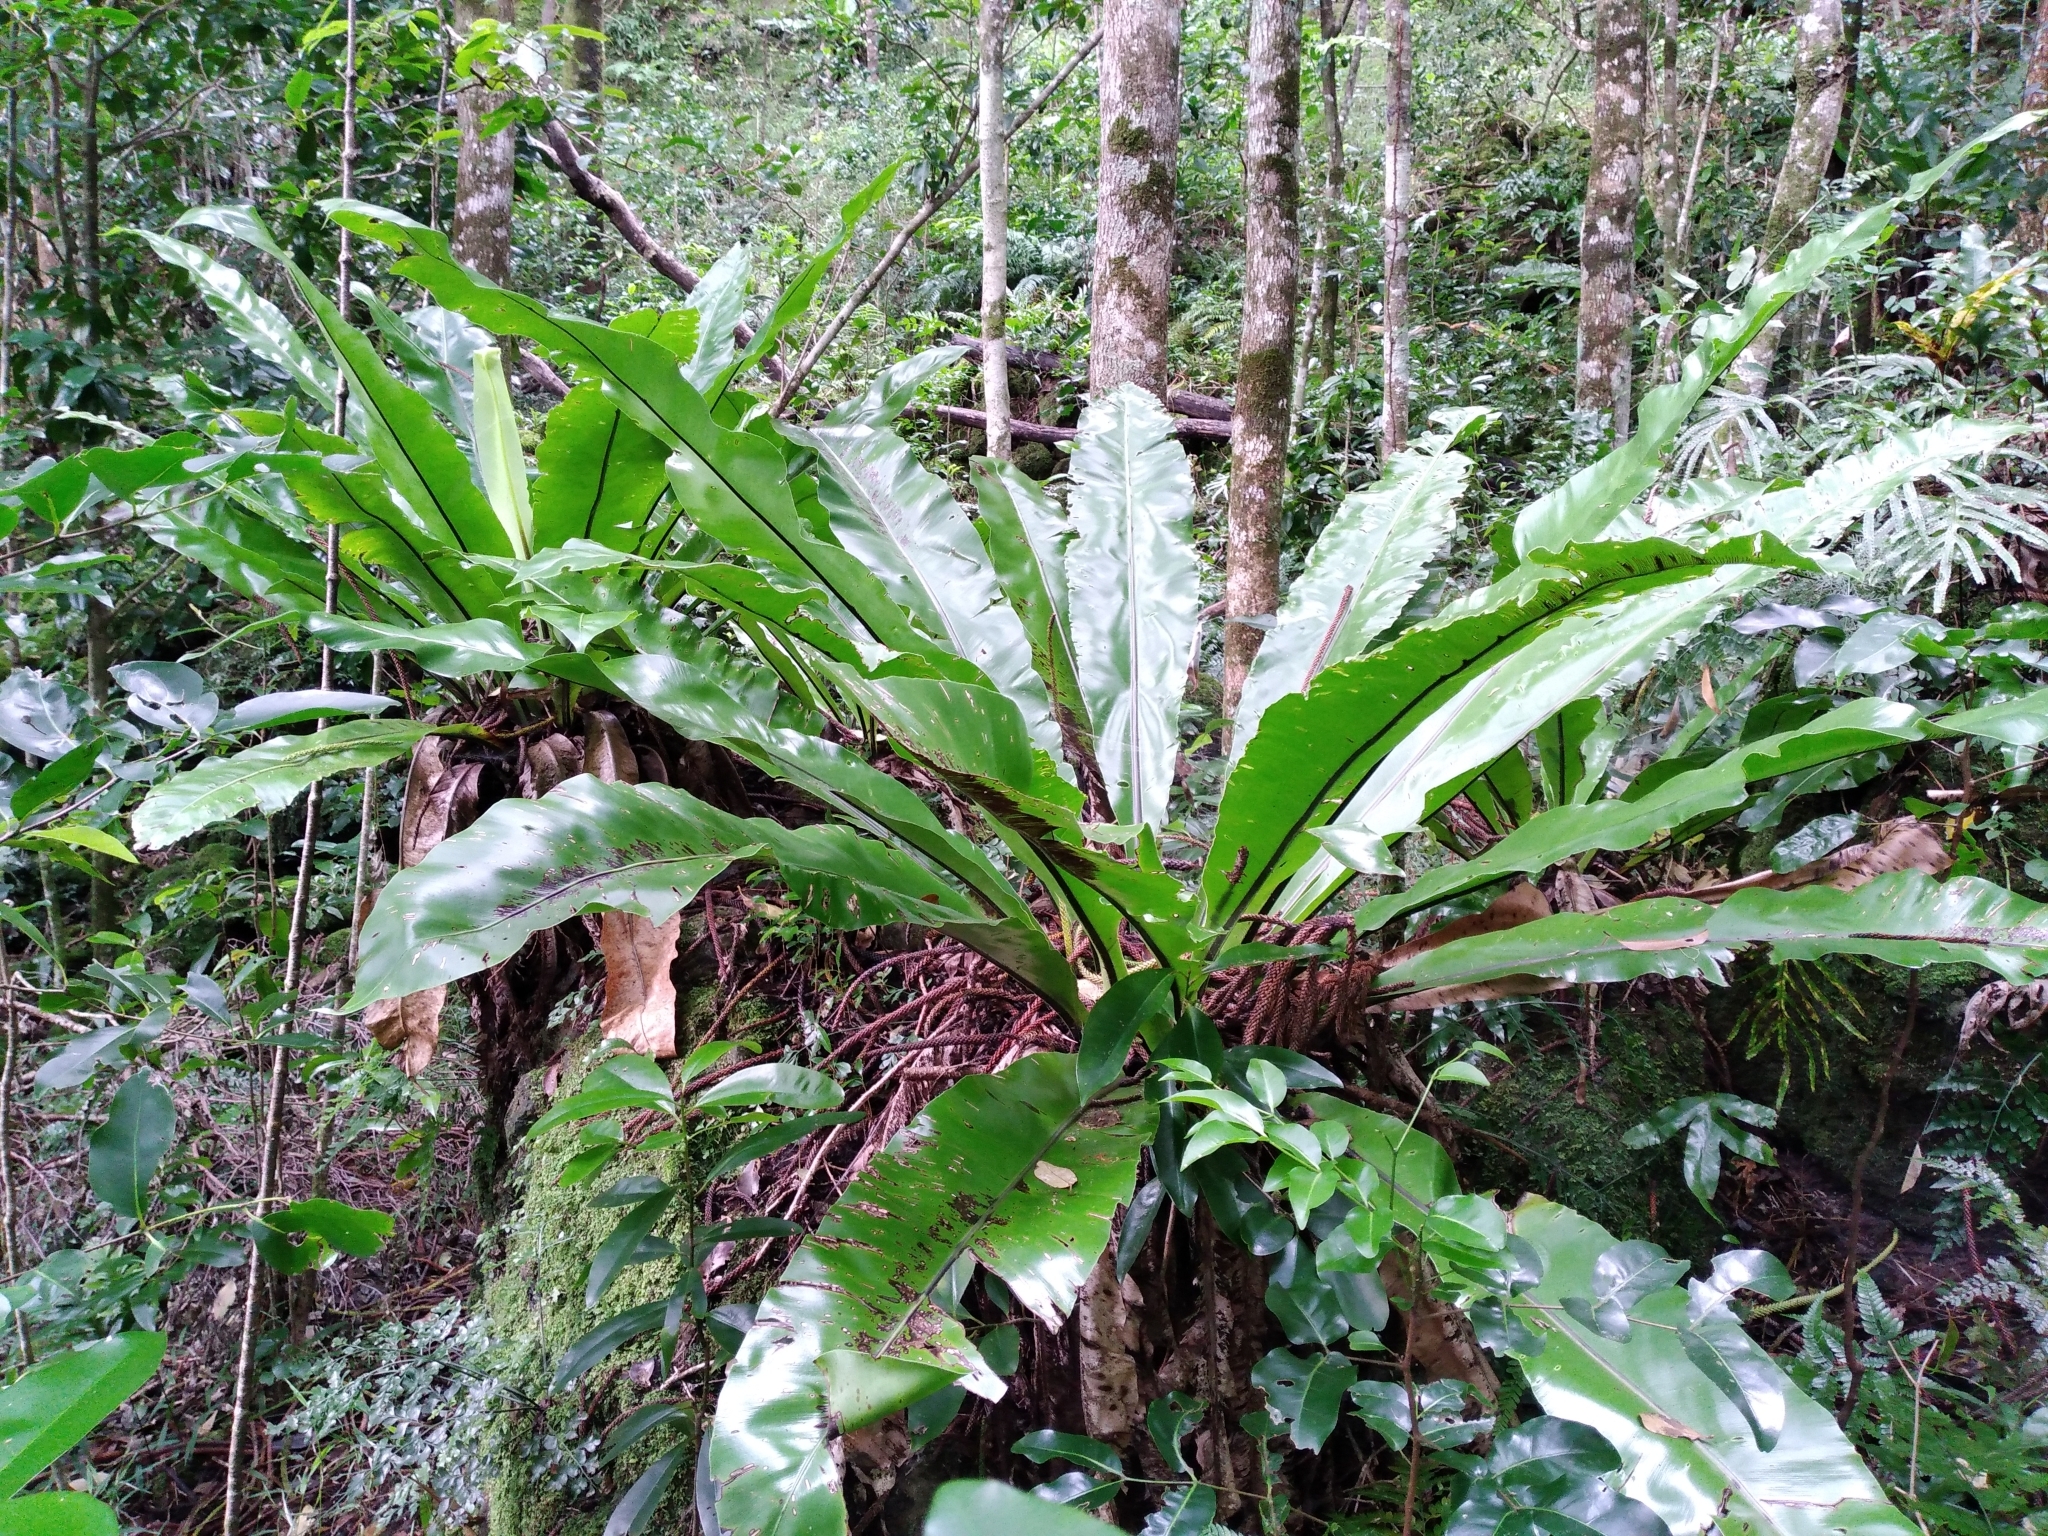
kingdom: Plantae
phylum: Tracheophyta
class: Polypodiopsida
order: Polypodiales
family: Aspleniaceae
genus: Asplenium
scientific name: Asplenium australasicum
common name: Bird's-nest fern
